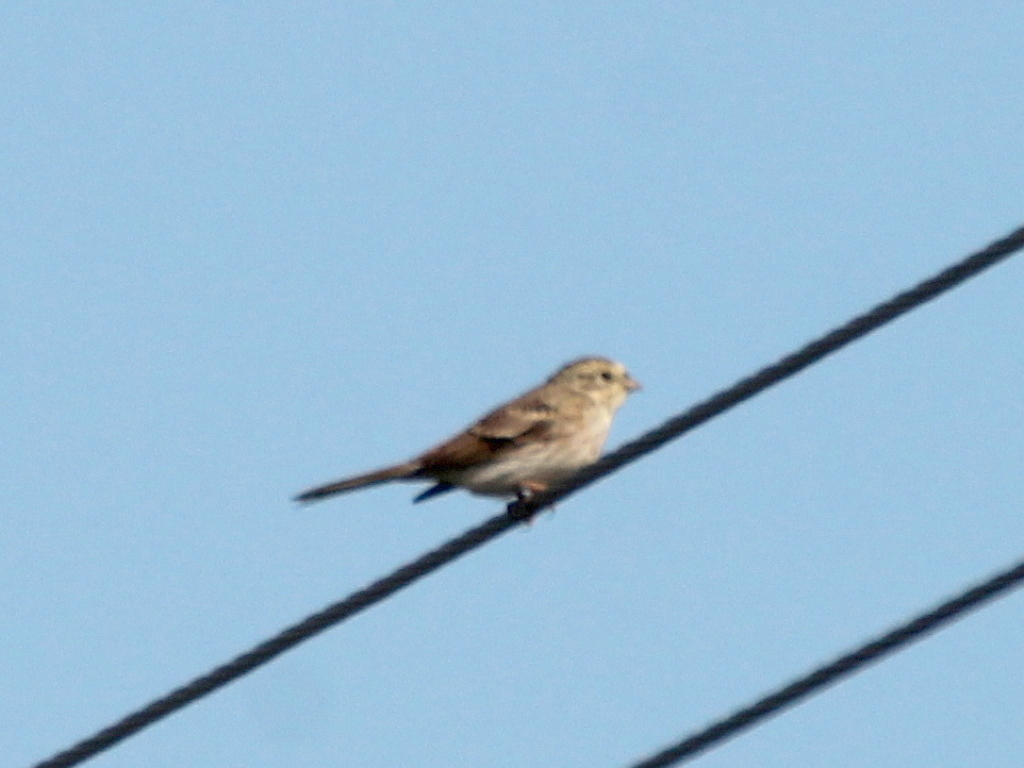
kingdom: Animalia
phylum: Chordata
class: Aves
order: Passeriformes
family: Emberizidae
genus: Emberiza
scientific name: Emberiza
